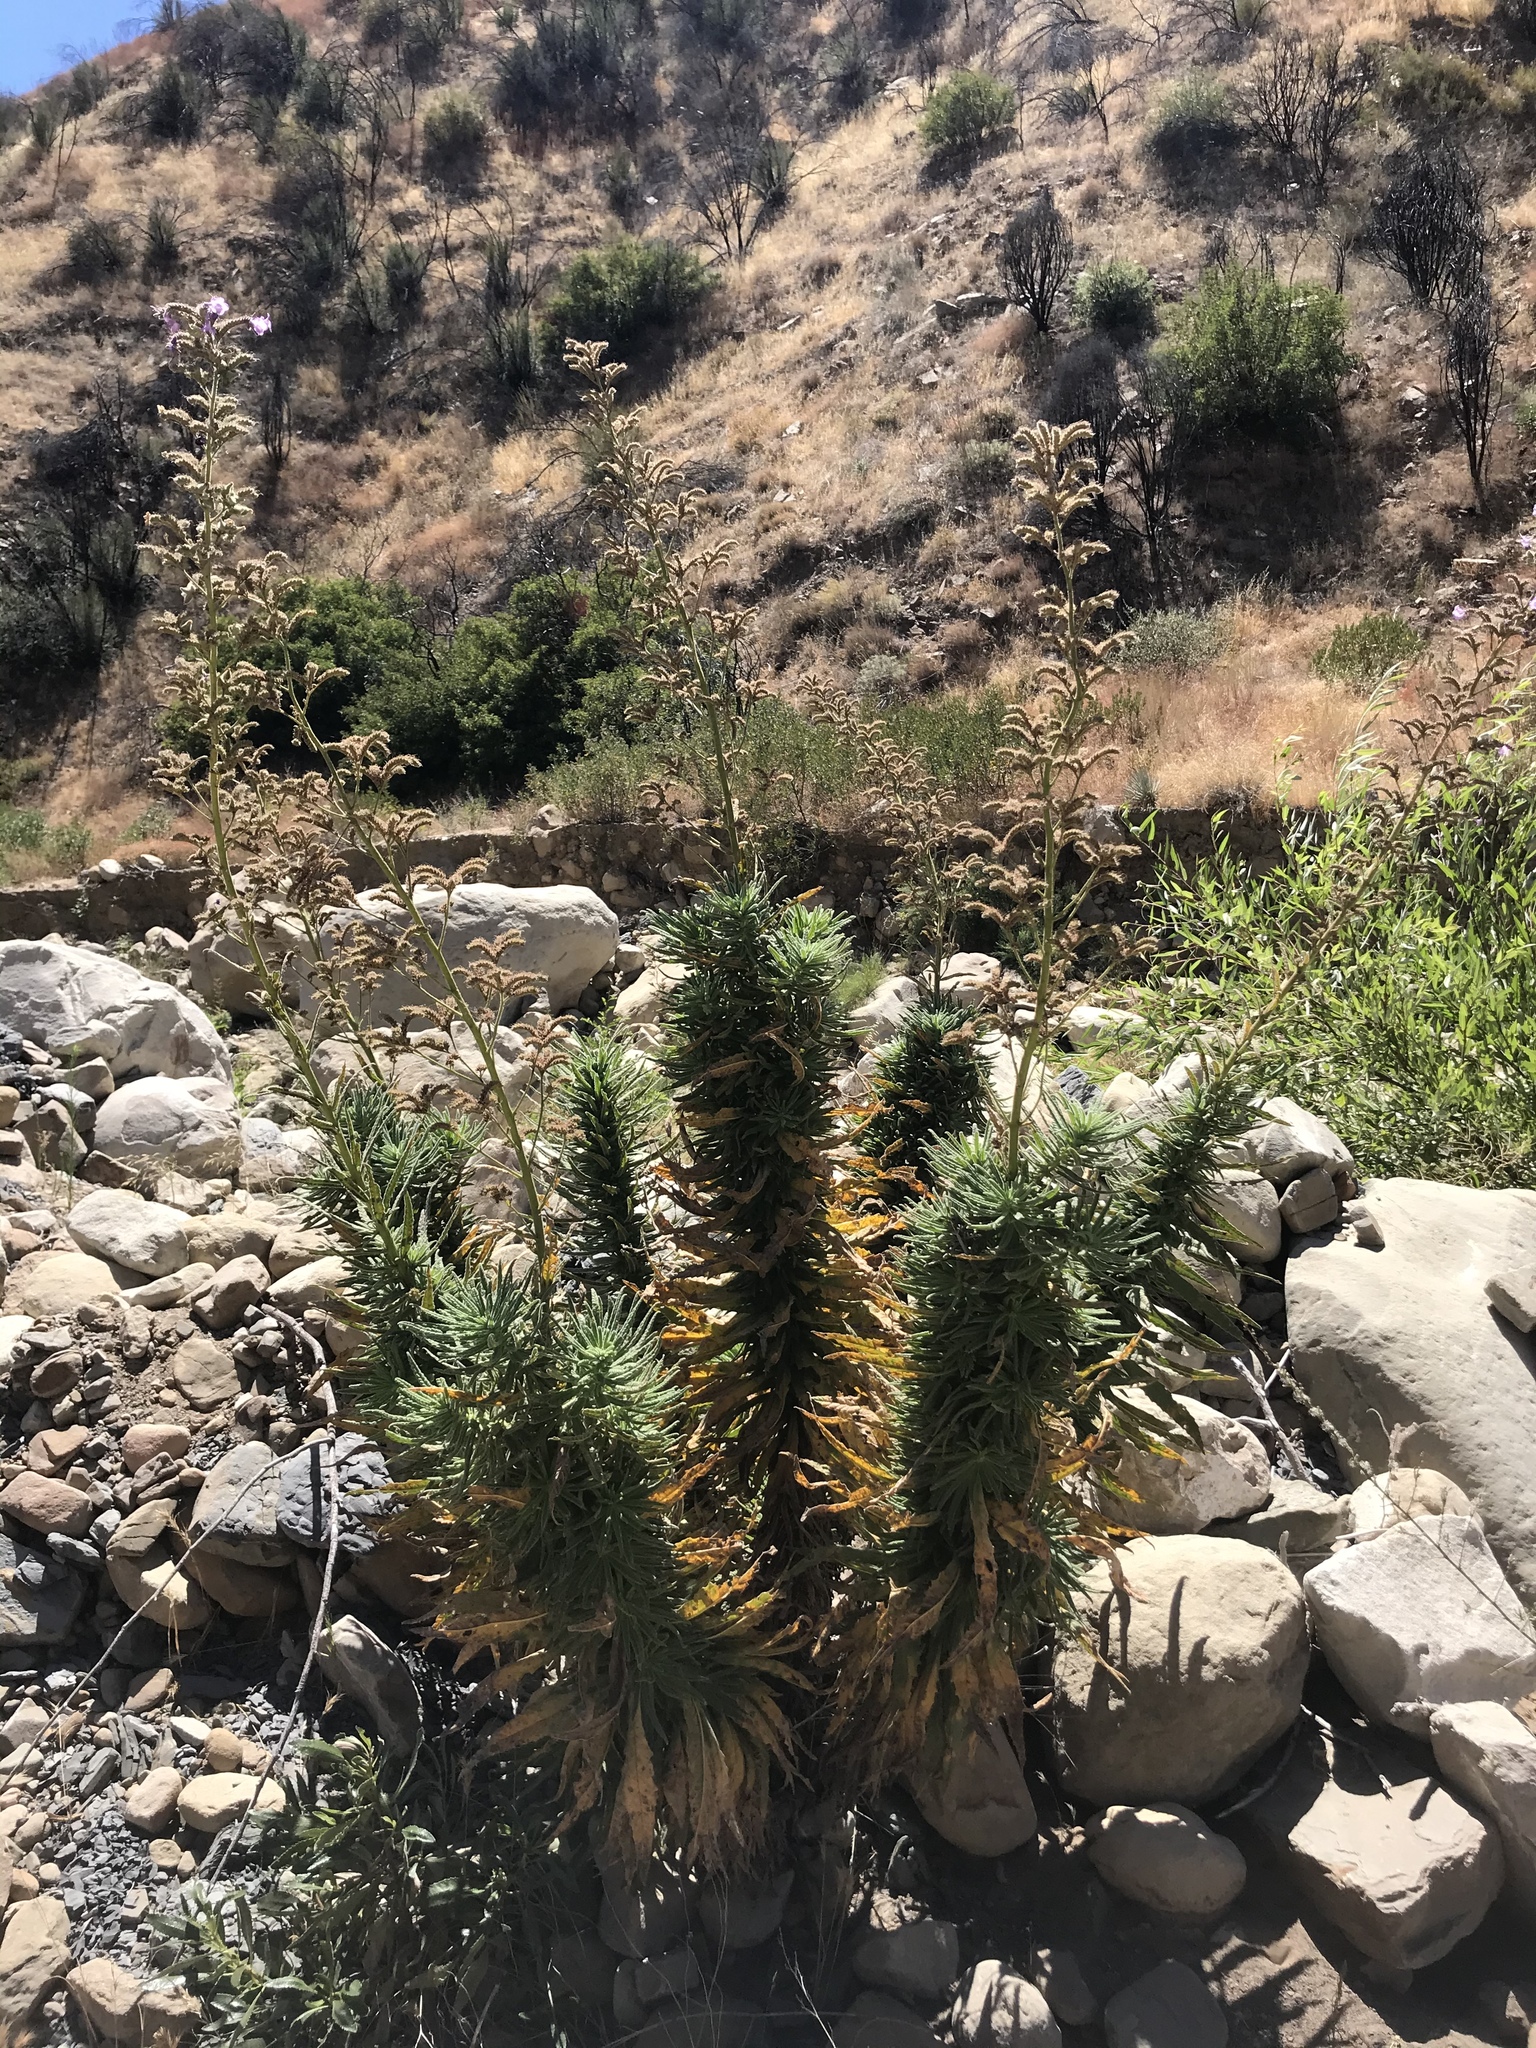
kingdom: Plantae
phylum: Tracheophyta
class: Magnoliopsida
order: Boraginales
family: Namaceae
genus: Turricula
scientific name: Turricula parryi
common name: Poodle-dog-bush
